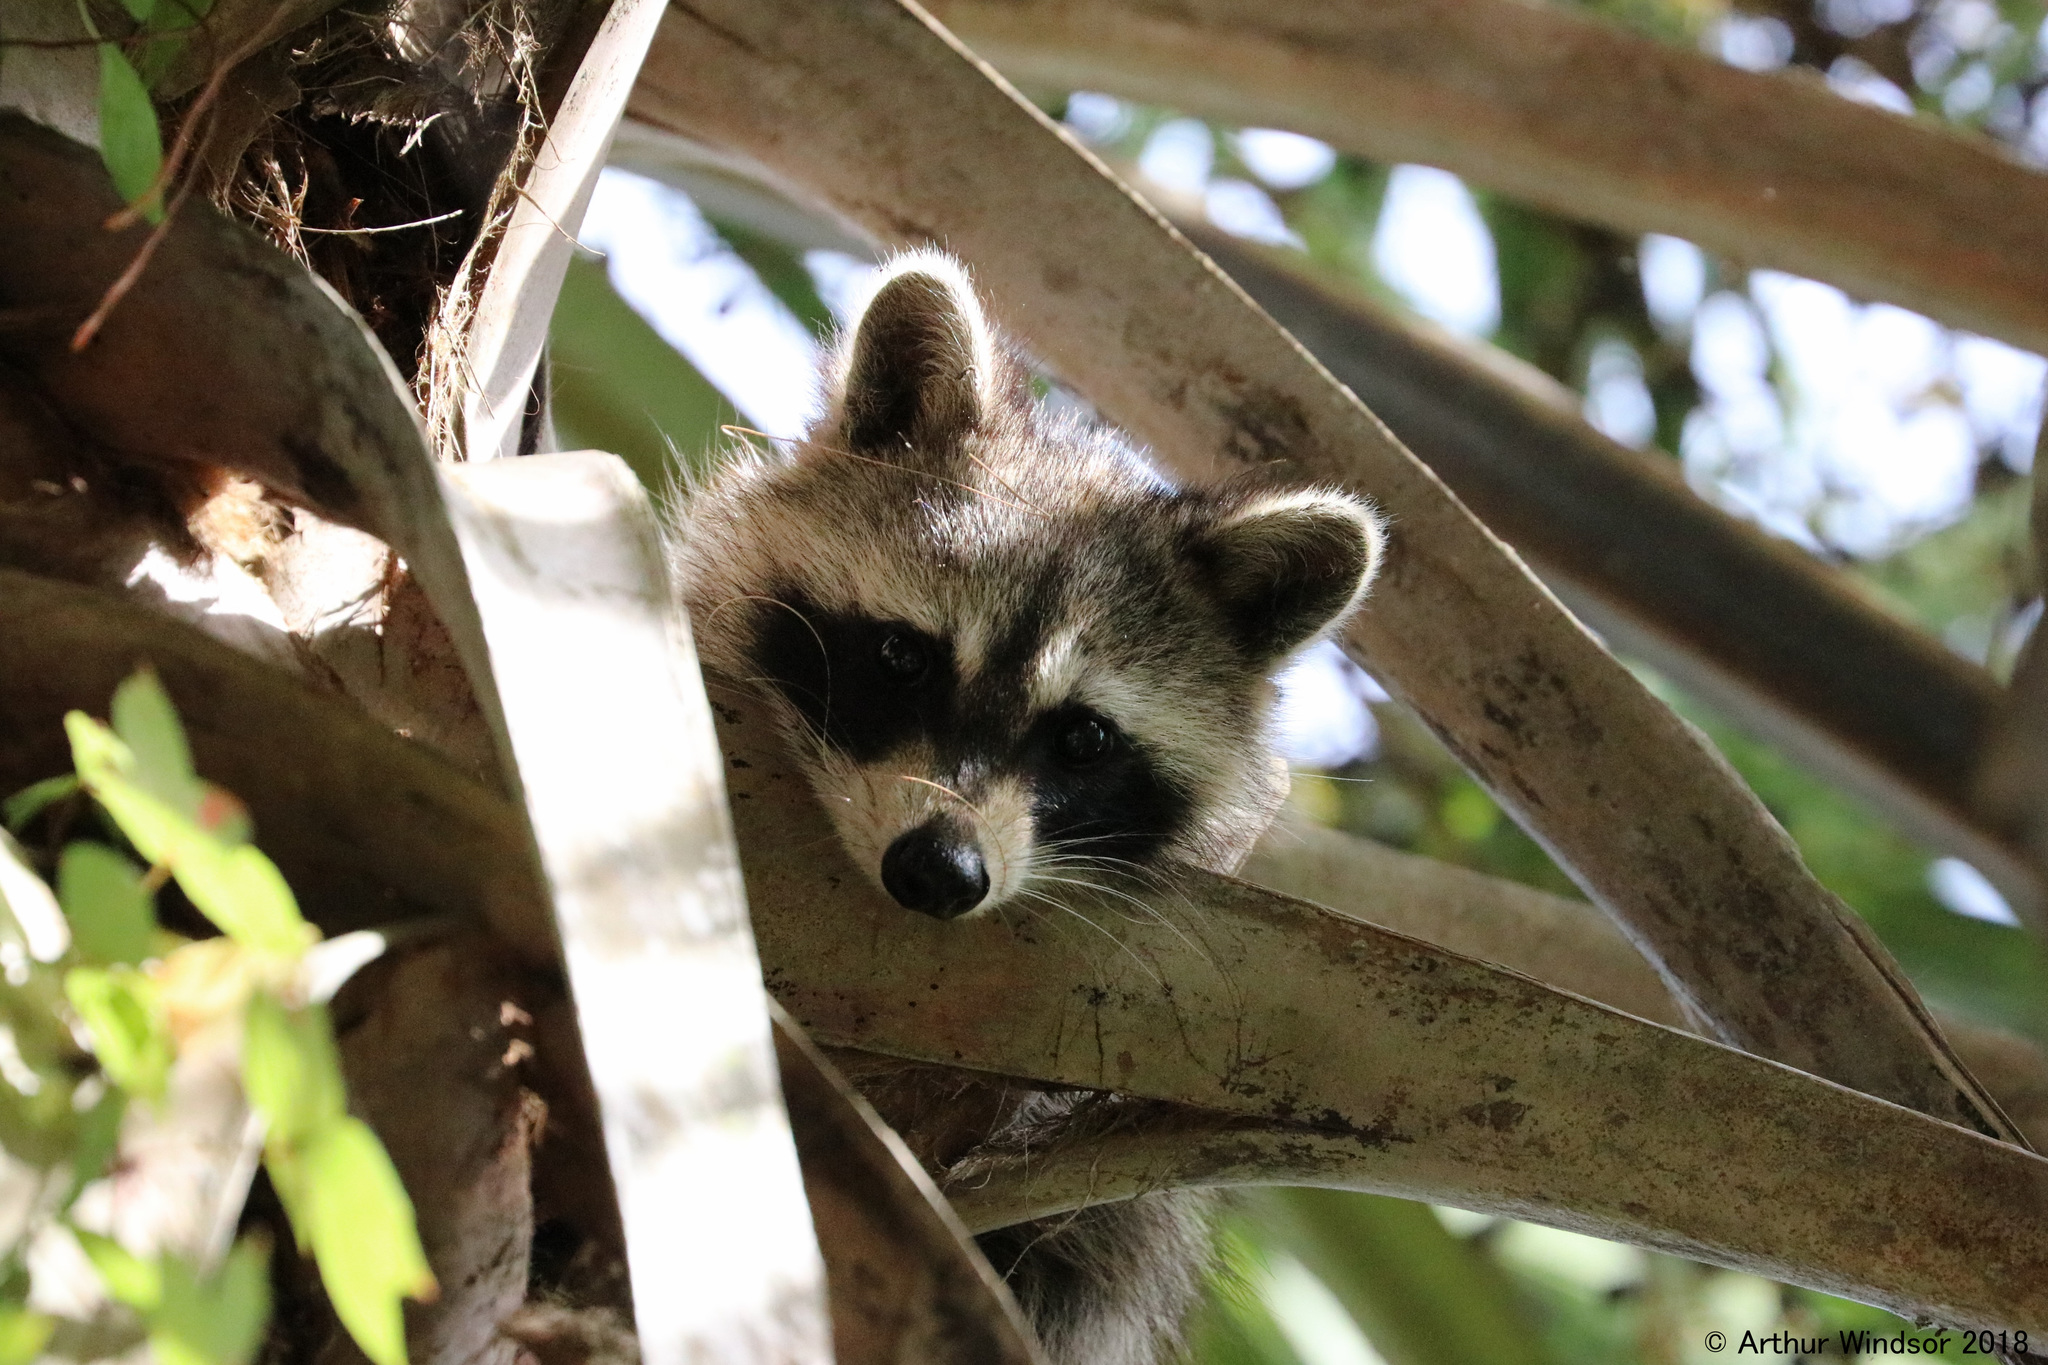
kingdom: Animalia
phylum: Chordata
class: Mammalia
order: Carnivora
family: Procyonidae
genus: Procyon
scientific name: Procyon lotor
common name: Raccoon
